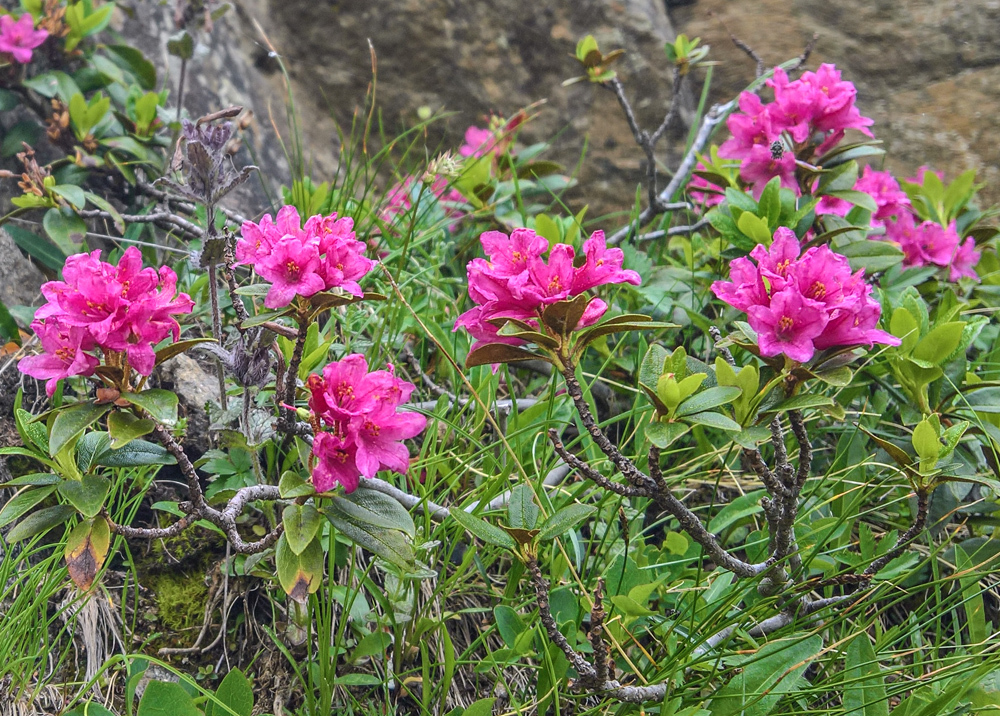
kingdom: Plantae
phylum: Tracheophyta
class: Magnoliopsida
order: Ericales
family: Ericaceae
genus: Rhododendron
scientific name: Rhododendron ferrugineum
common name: Alpenrose
